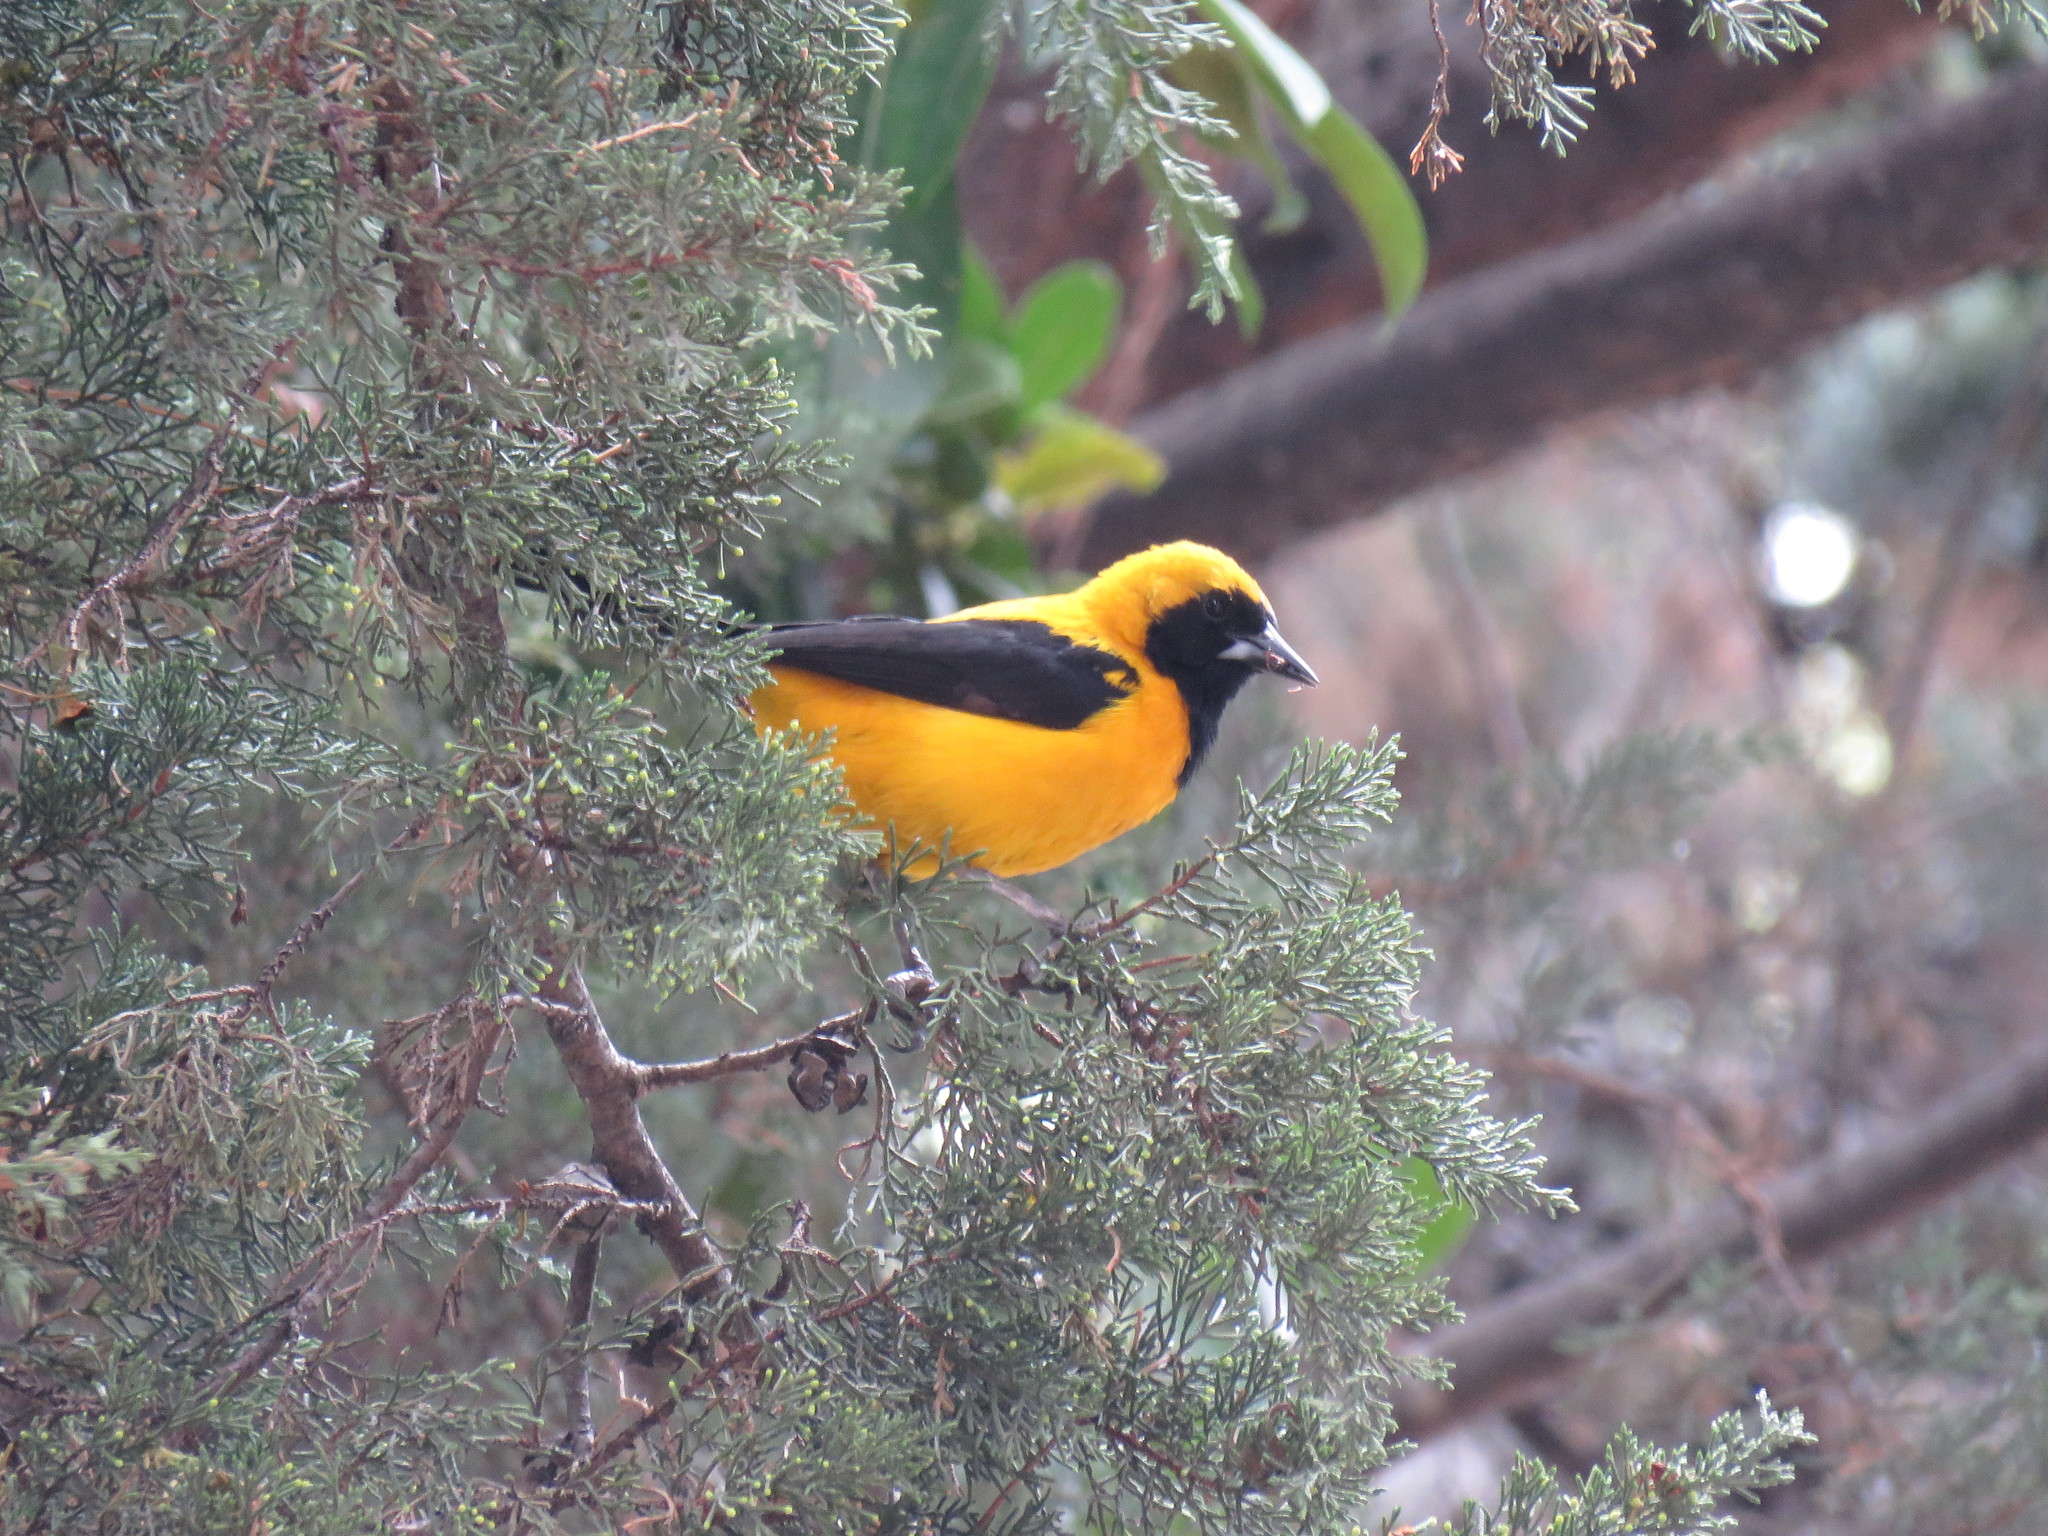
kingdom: Animalia
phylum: Chordata
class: Aves
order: Passeriformes
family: Icteridae
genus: Icterus
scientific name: Icterus chrysater
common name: Yellow-backed oriole
